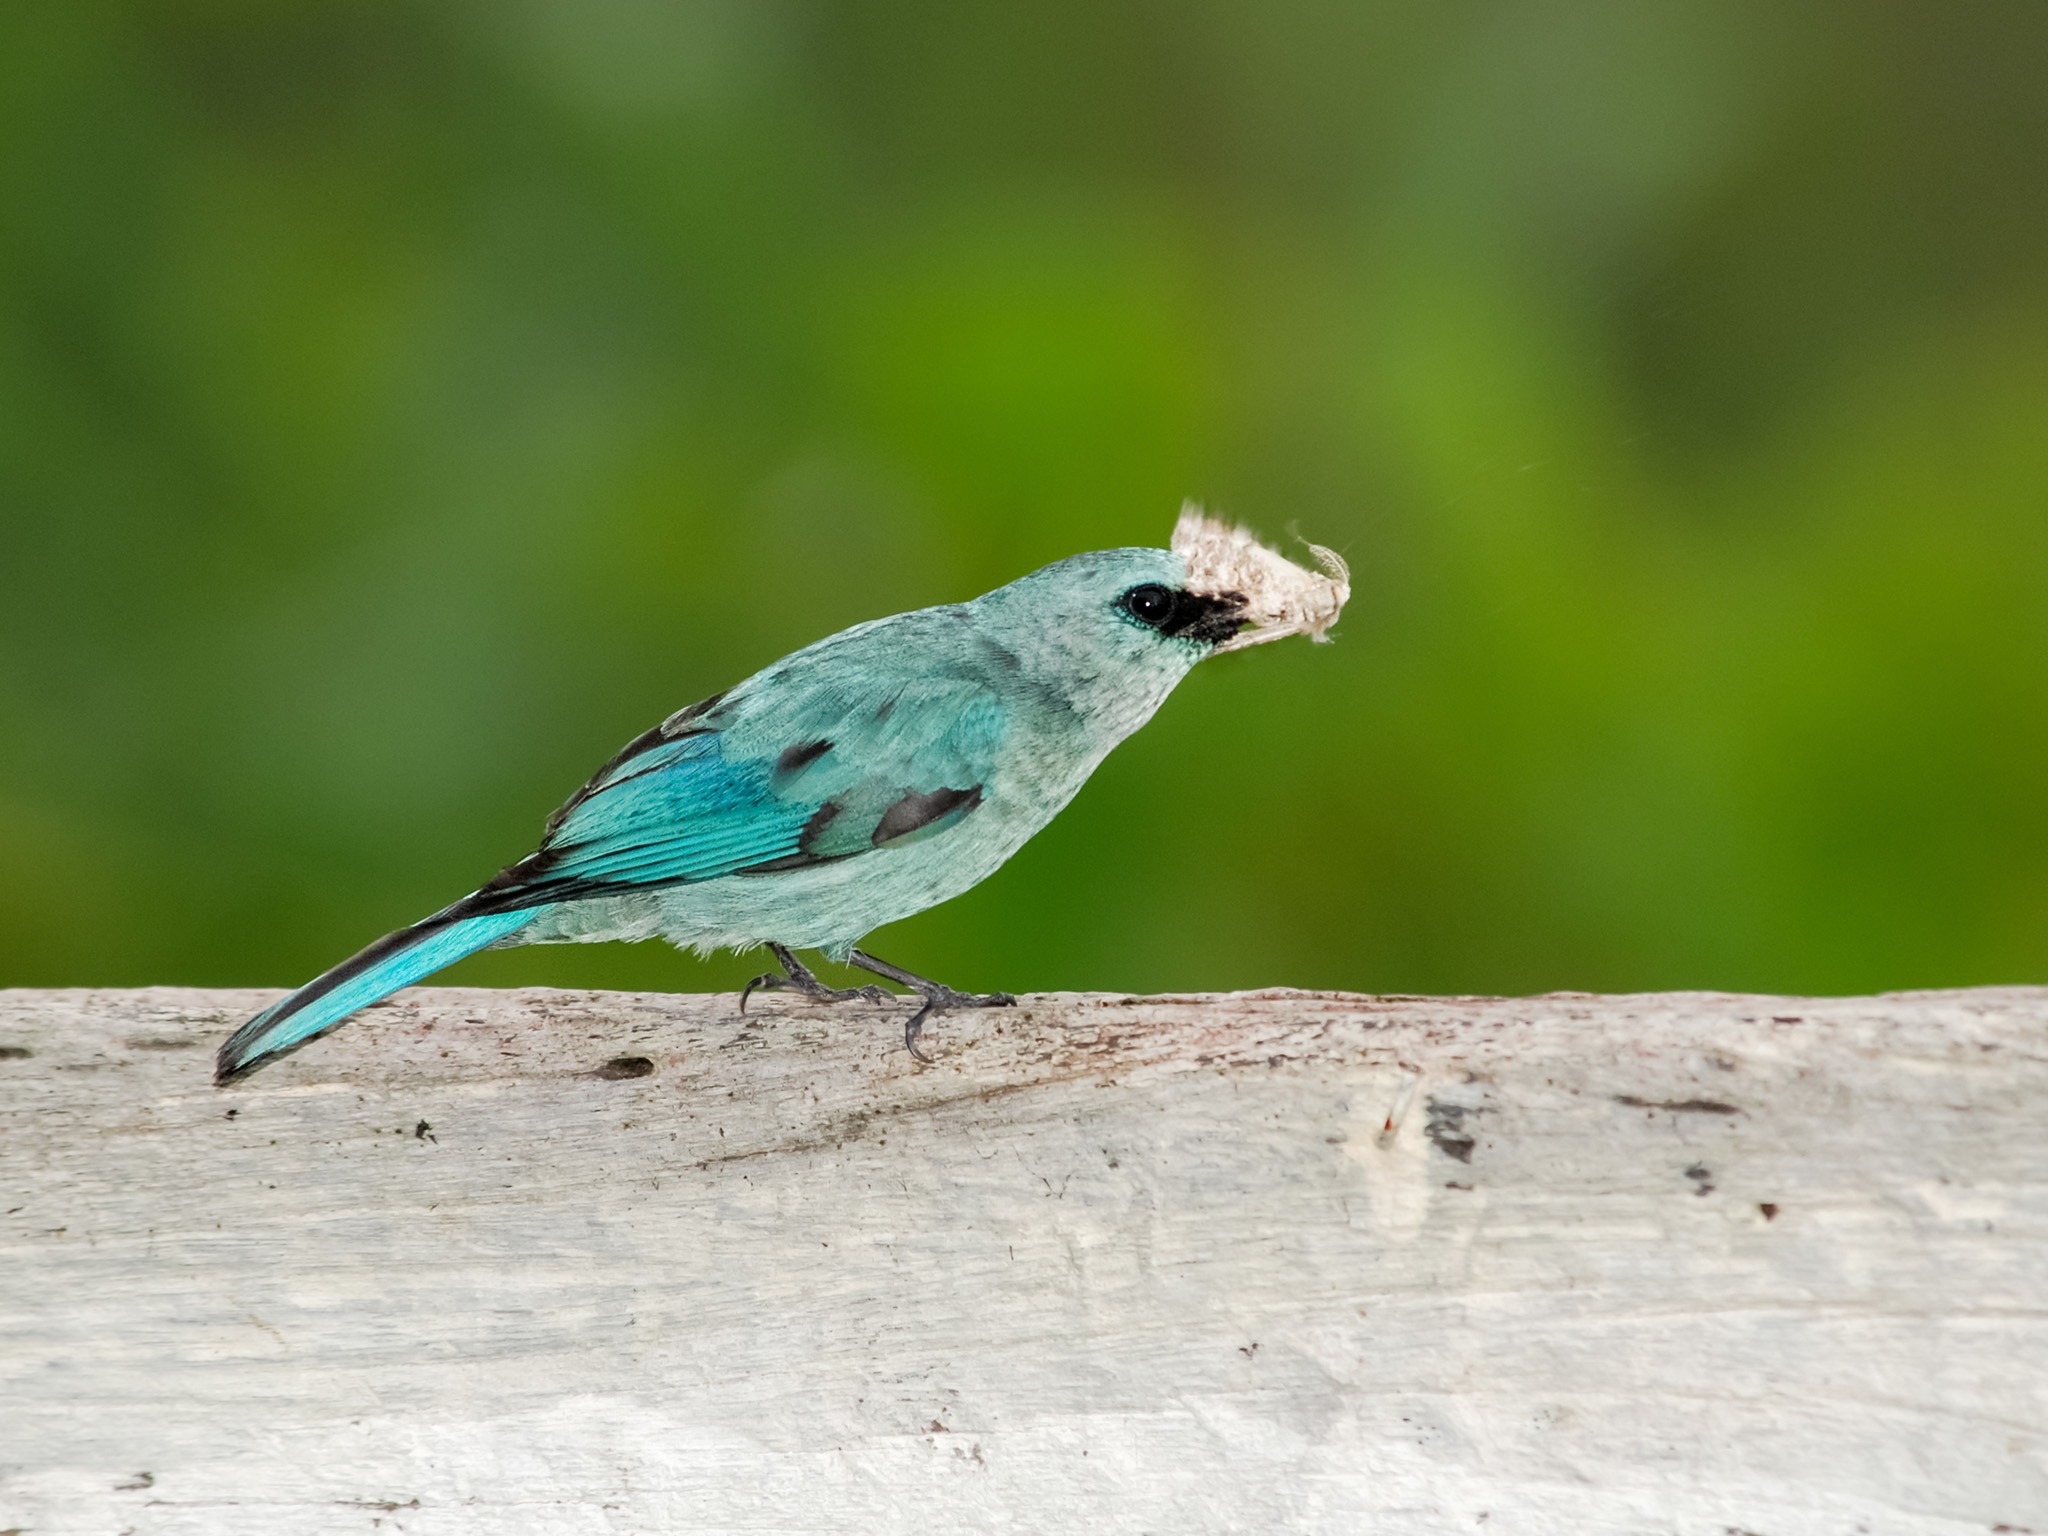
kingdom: Animalia
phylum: Chordata
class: Aves
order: Passeriformes
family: Muscicapidae
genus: Eumyias
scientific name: Eumyias thalassinus
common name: Verditer flycatcher
